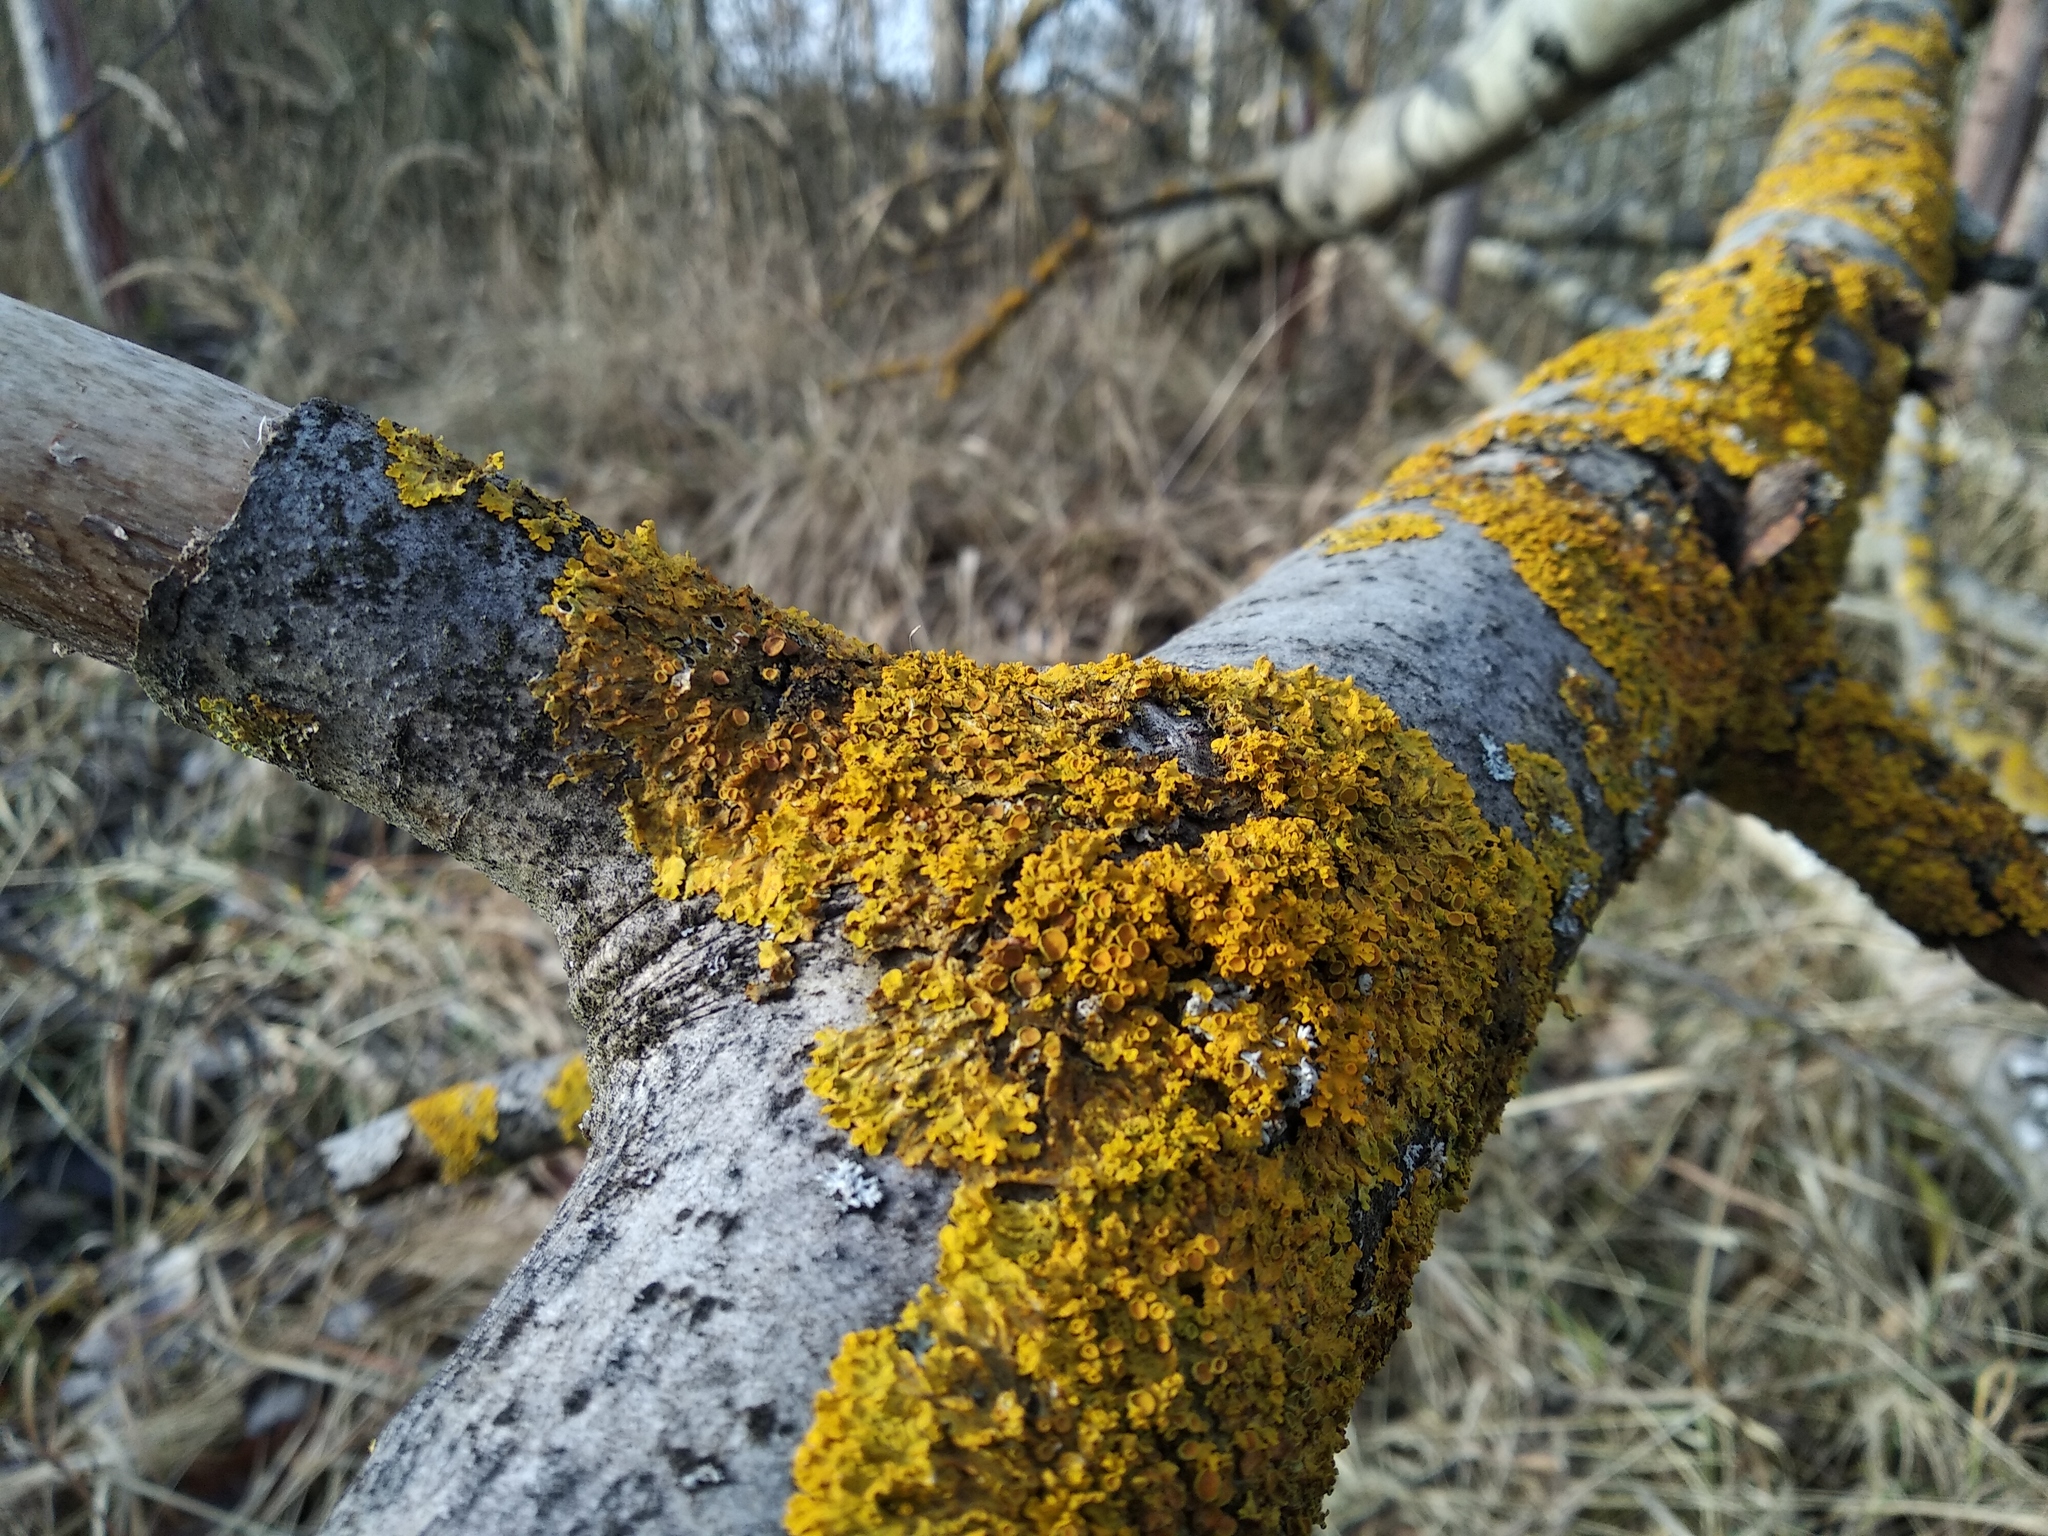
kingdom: Fungi
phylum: Ascomycota
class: Lecanoromycetes
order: Teloschistales
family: Teloschistaceae
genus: Xanthoria
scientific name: Xanthoria parietina
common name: Common orange lichen
